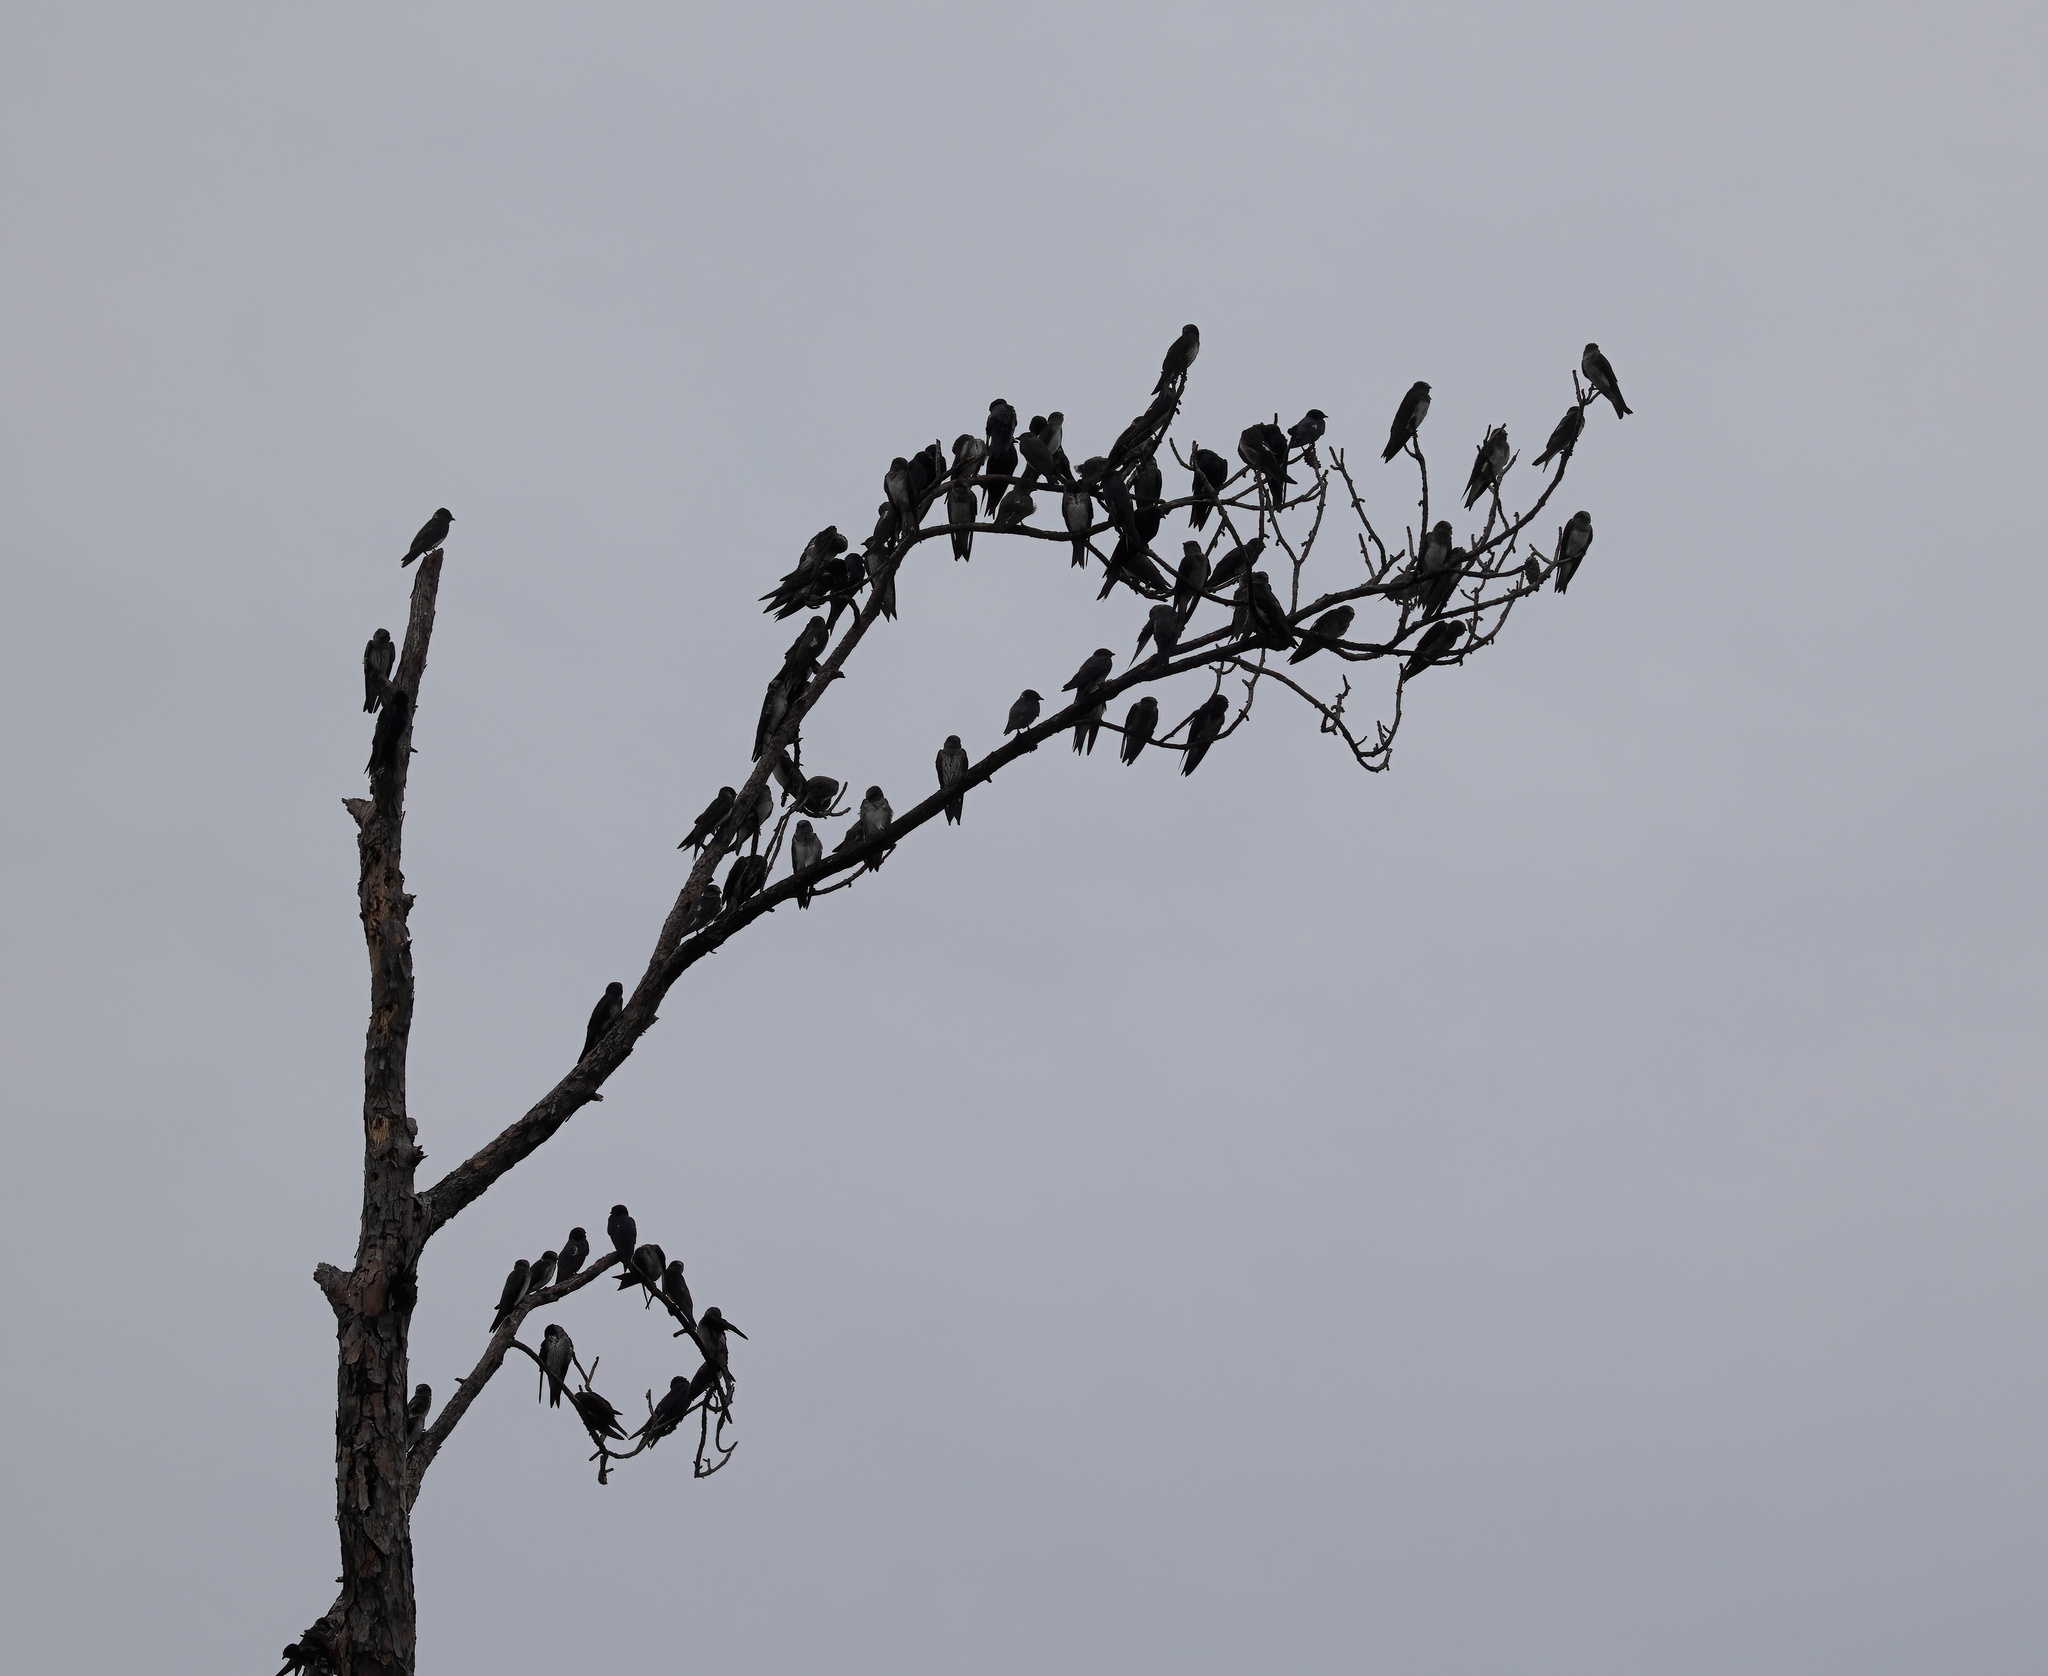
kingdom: Animalia
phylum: Chordata
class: Aves
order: Passeriformes
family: Hirundinidae
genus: Progne
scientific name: Progne subis
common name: Purple martin
